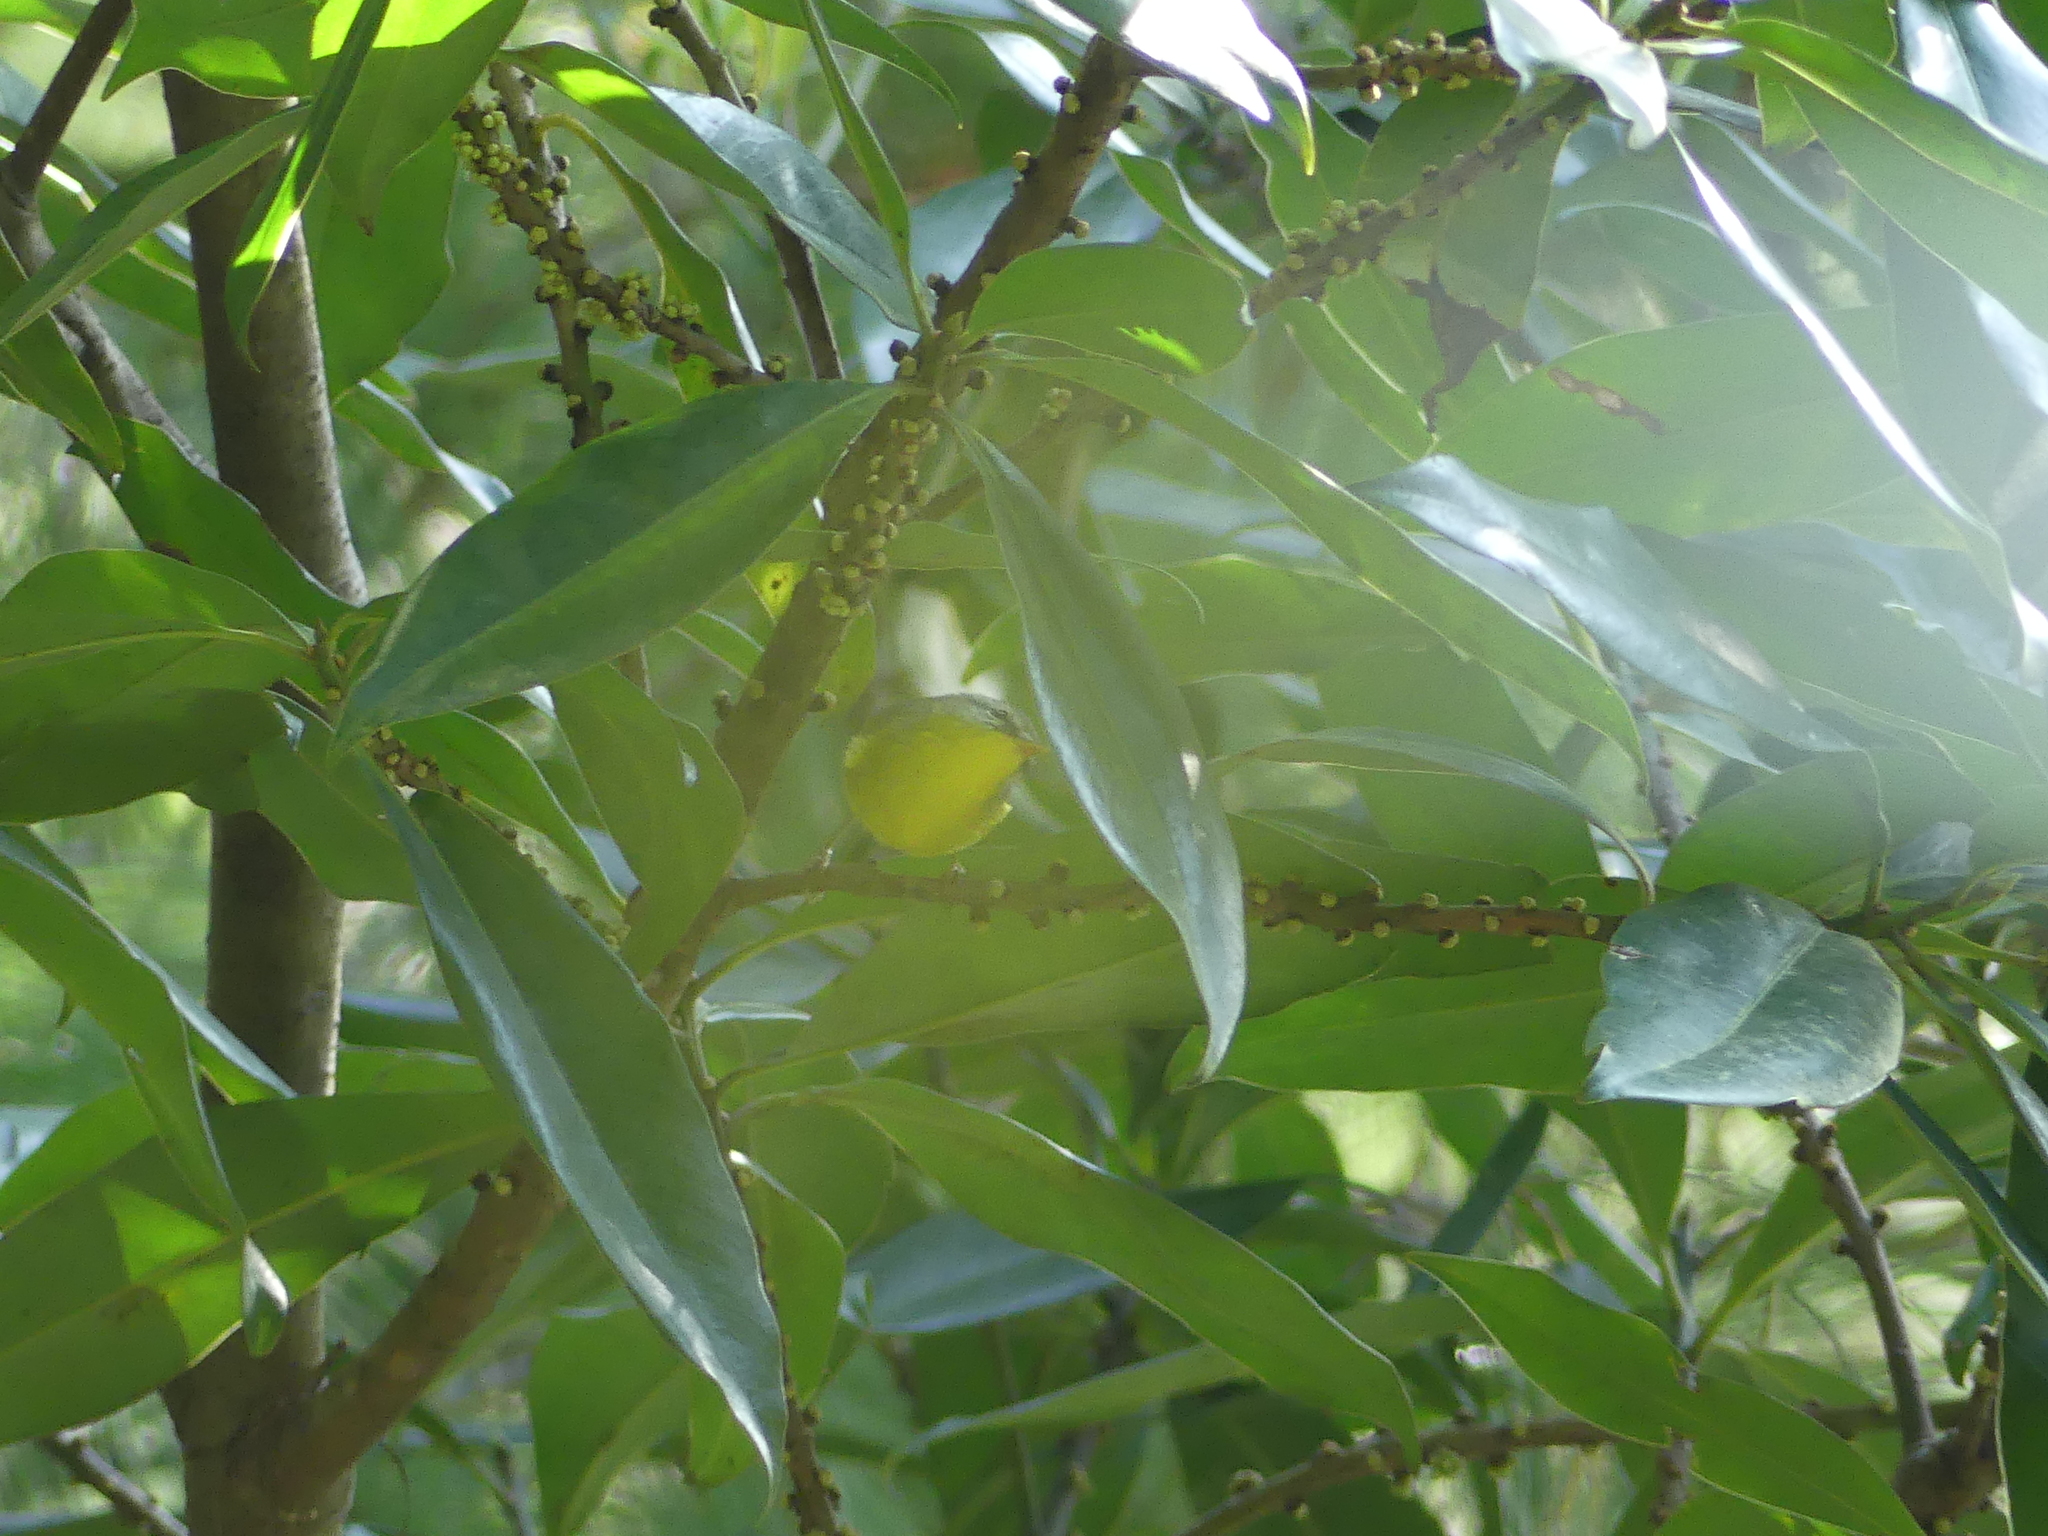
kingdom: Animalia
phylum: Chordata
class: Aves
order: Passeriformes
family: Phylloscopidae
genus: Phylloscopus
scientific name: Phylloscopus xanthoschistos
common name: Grey-hooded warbler
